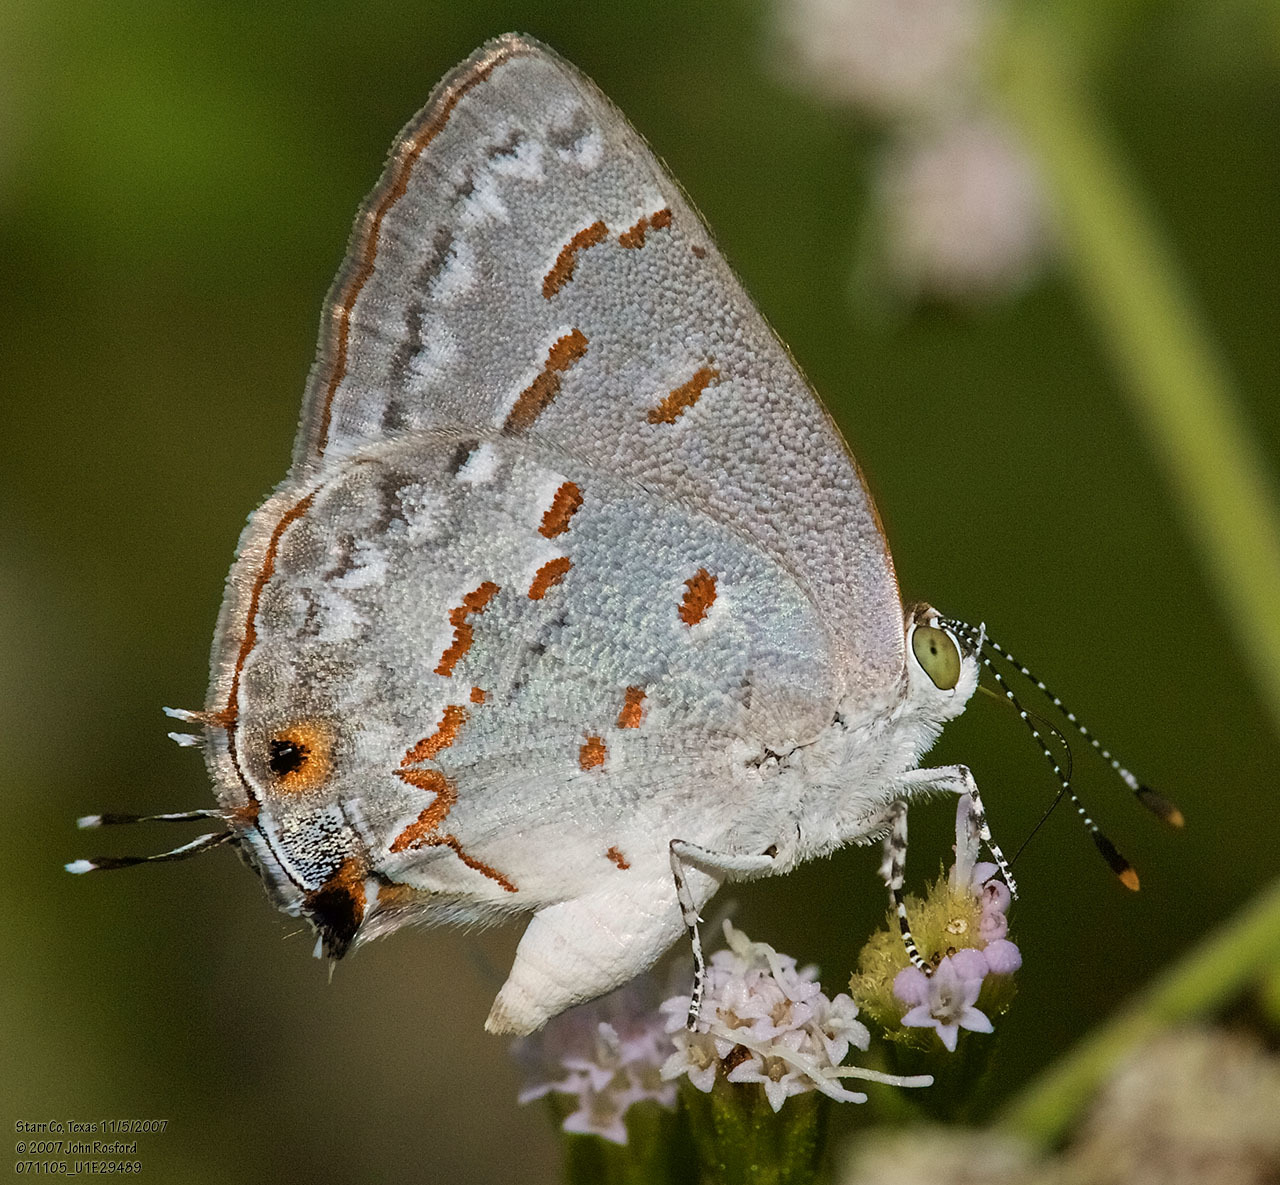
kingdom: Animalia
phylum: Arthropoda
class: Insecta
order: Lepidoptera
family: Lycaenidae
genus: Ministrymon
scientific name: Ministrymon clytie
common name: Clytie ministreak
